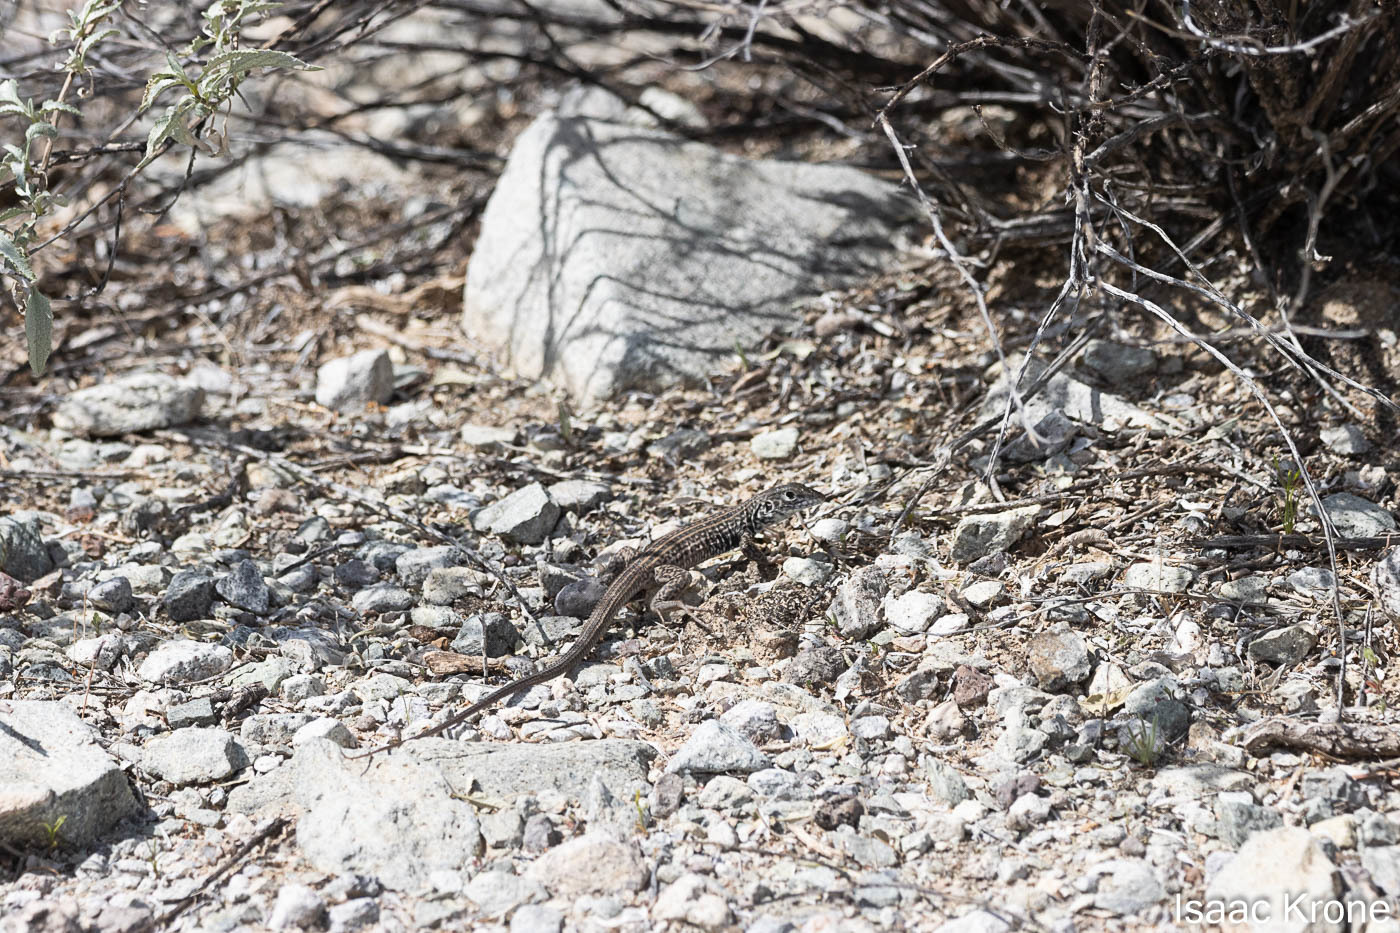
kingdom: Animalia
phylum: Chordata
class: Squamata
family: Teiidae
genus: Aspidoscelis
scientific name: Aspidoscelis tigris
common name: Tiger whiptail
